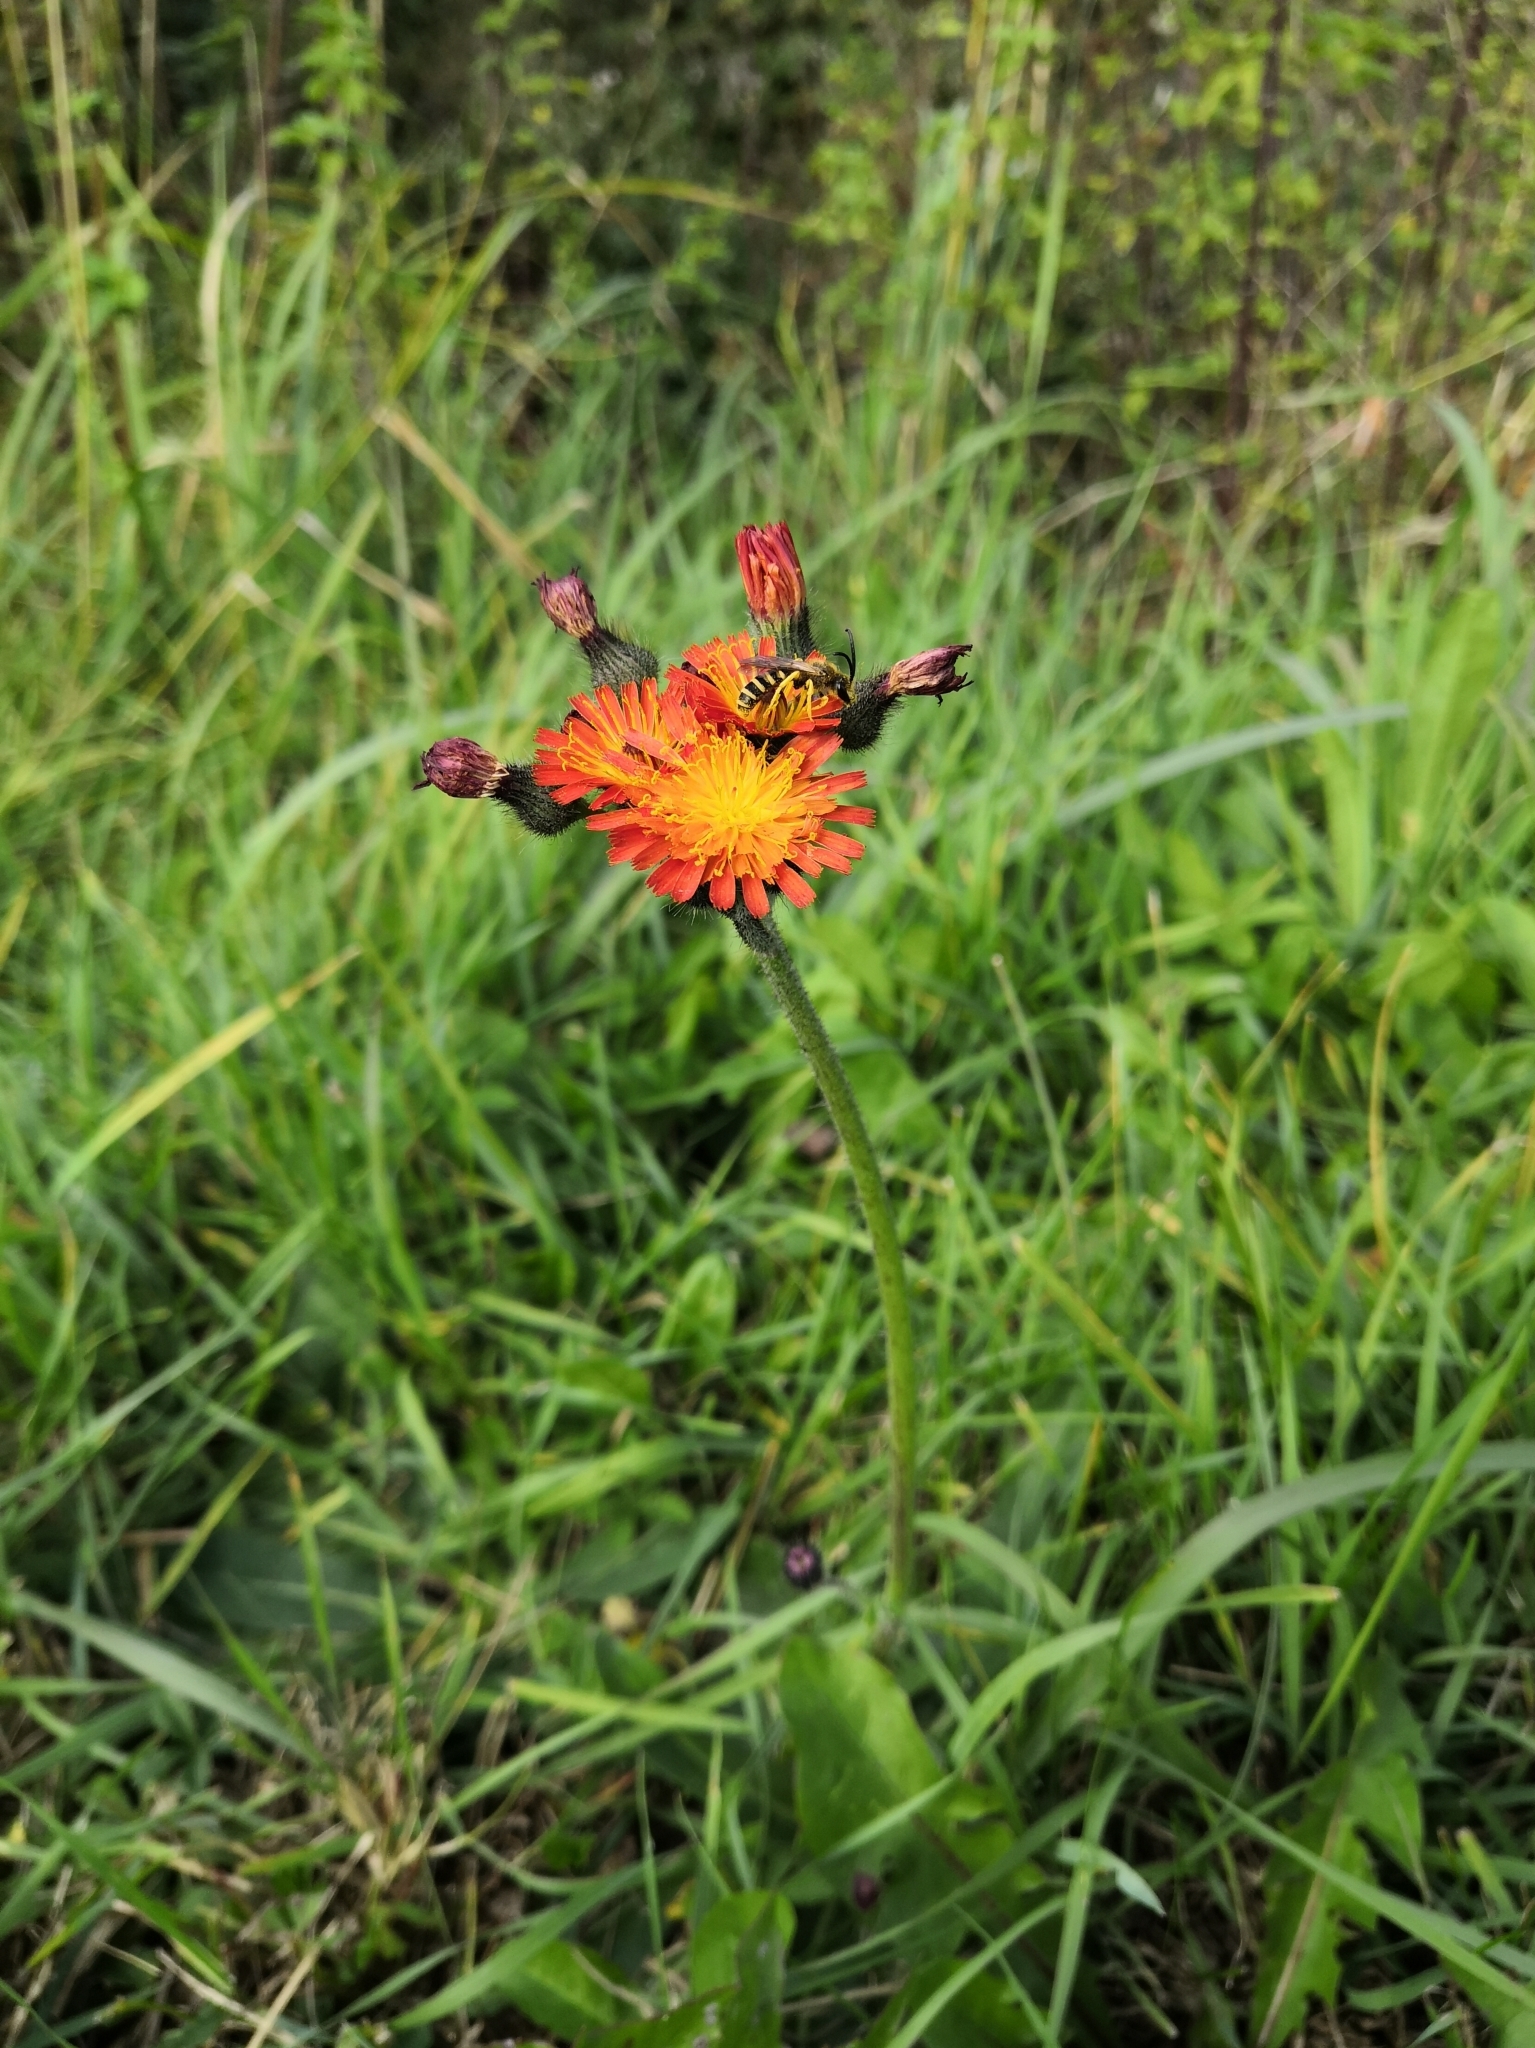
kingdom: Plantae
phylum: Tracheophyta
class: Magnoliopsida
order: Asterales
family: Asteraceae
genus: Pilosella
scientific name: Pilosella aurantiaca
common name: Fox-and-cubs
